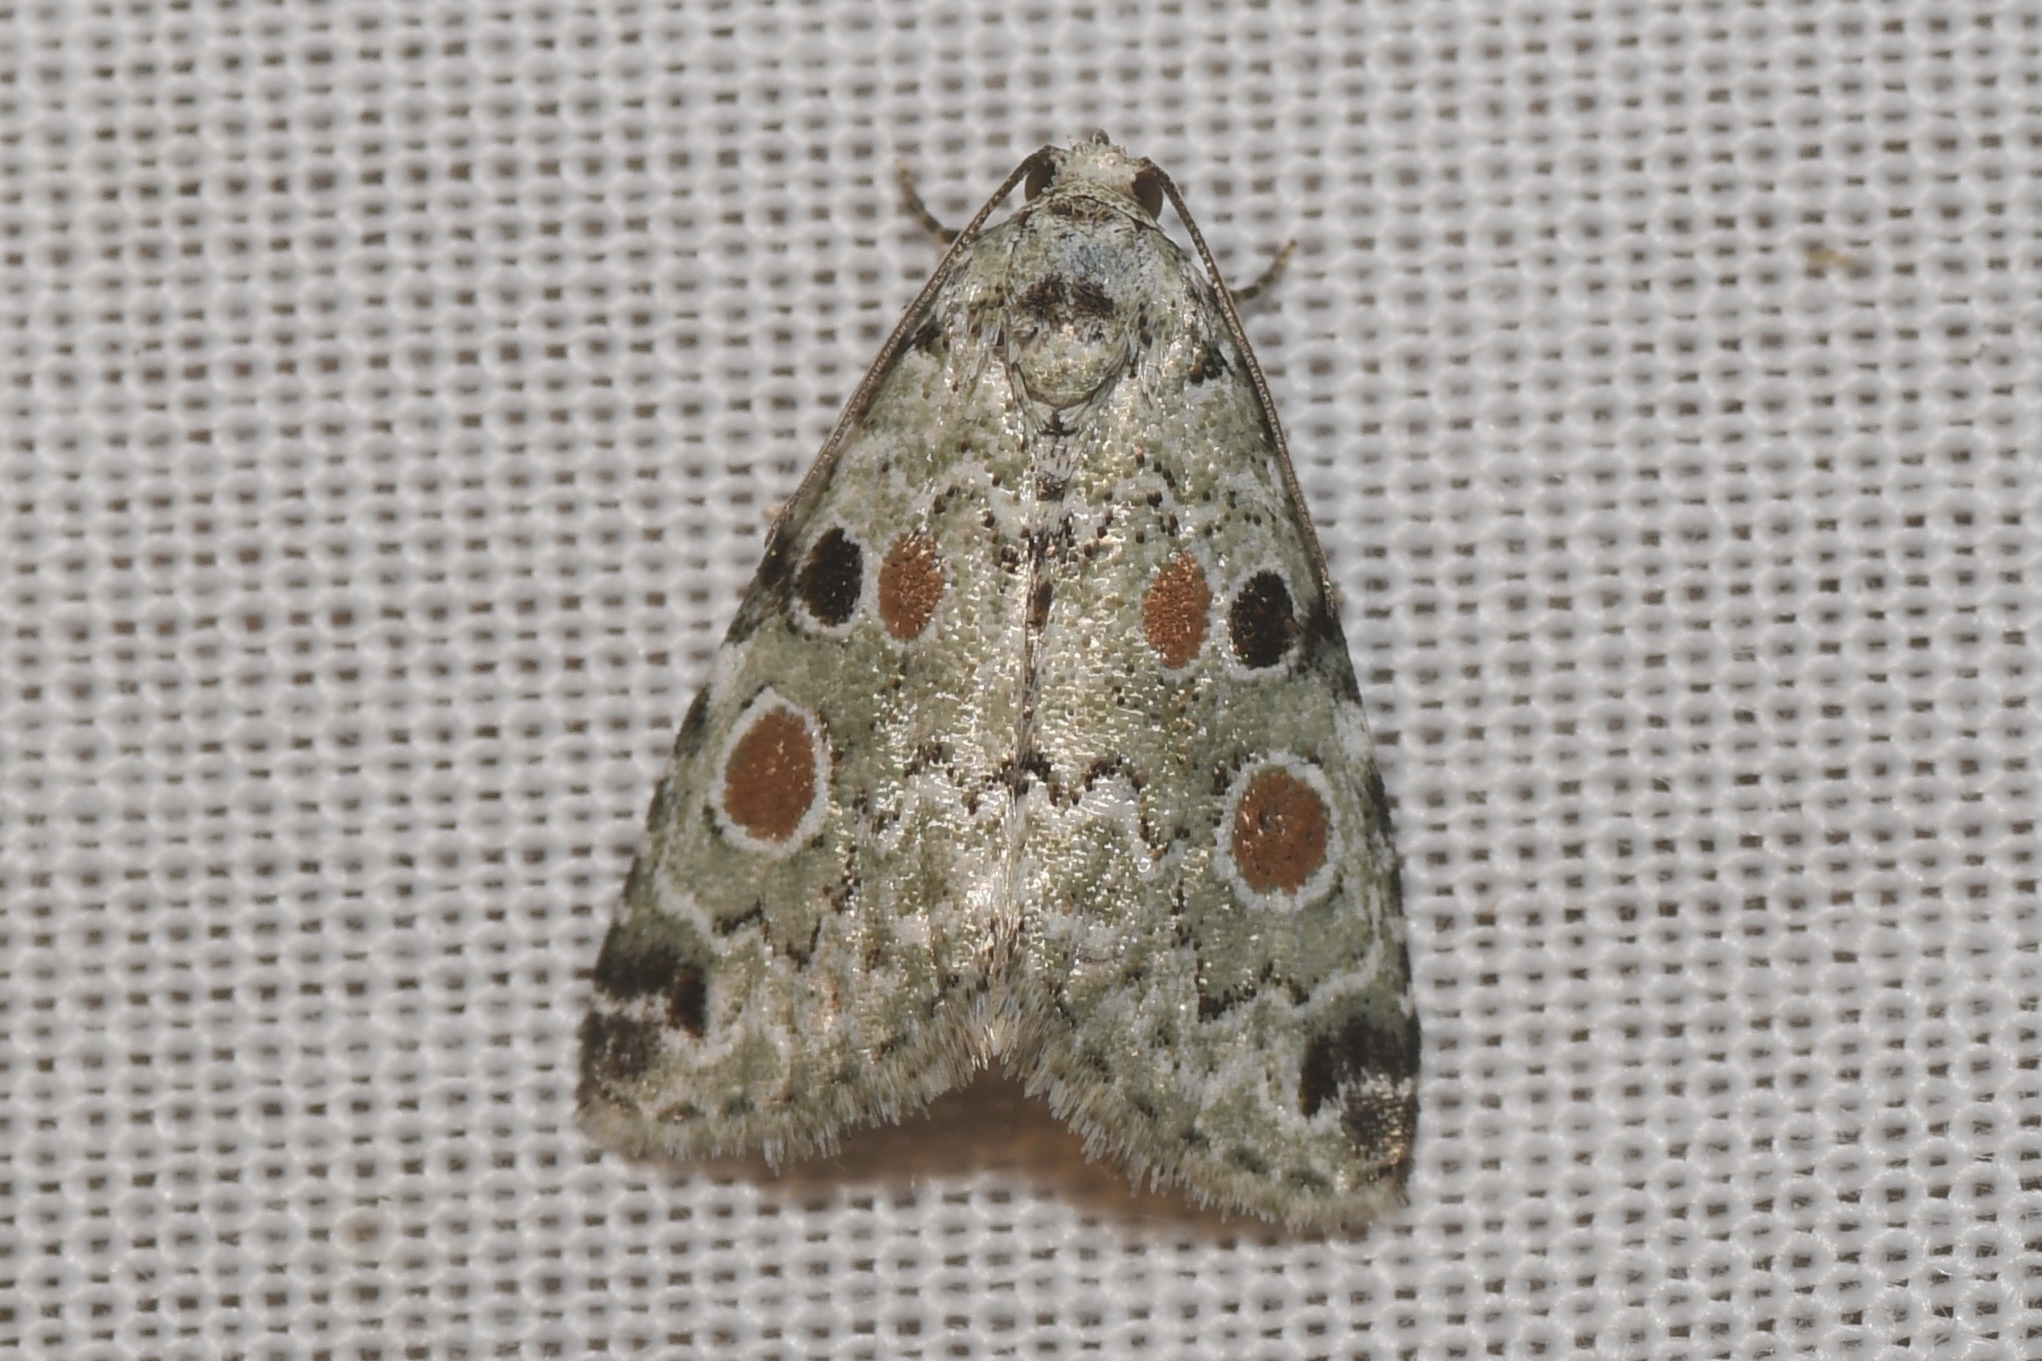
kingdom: Animalia
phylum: Arthropoda
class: Insecta
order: Lepidoptera
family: Noctuidae
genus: Maliattha
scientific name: Maliattha concinnimacula
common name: Red-spotted glyph
